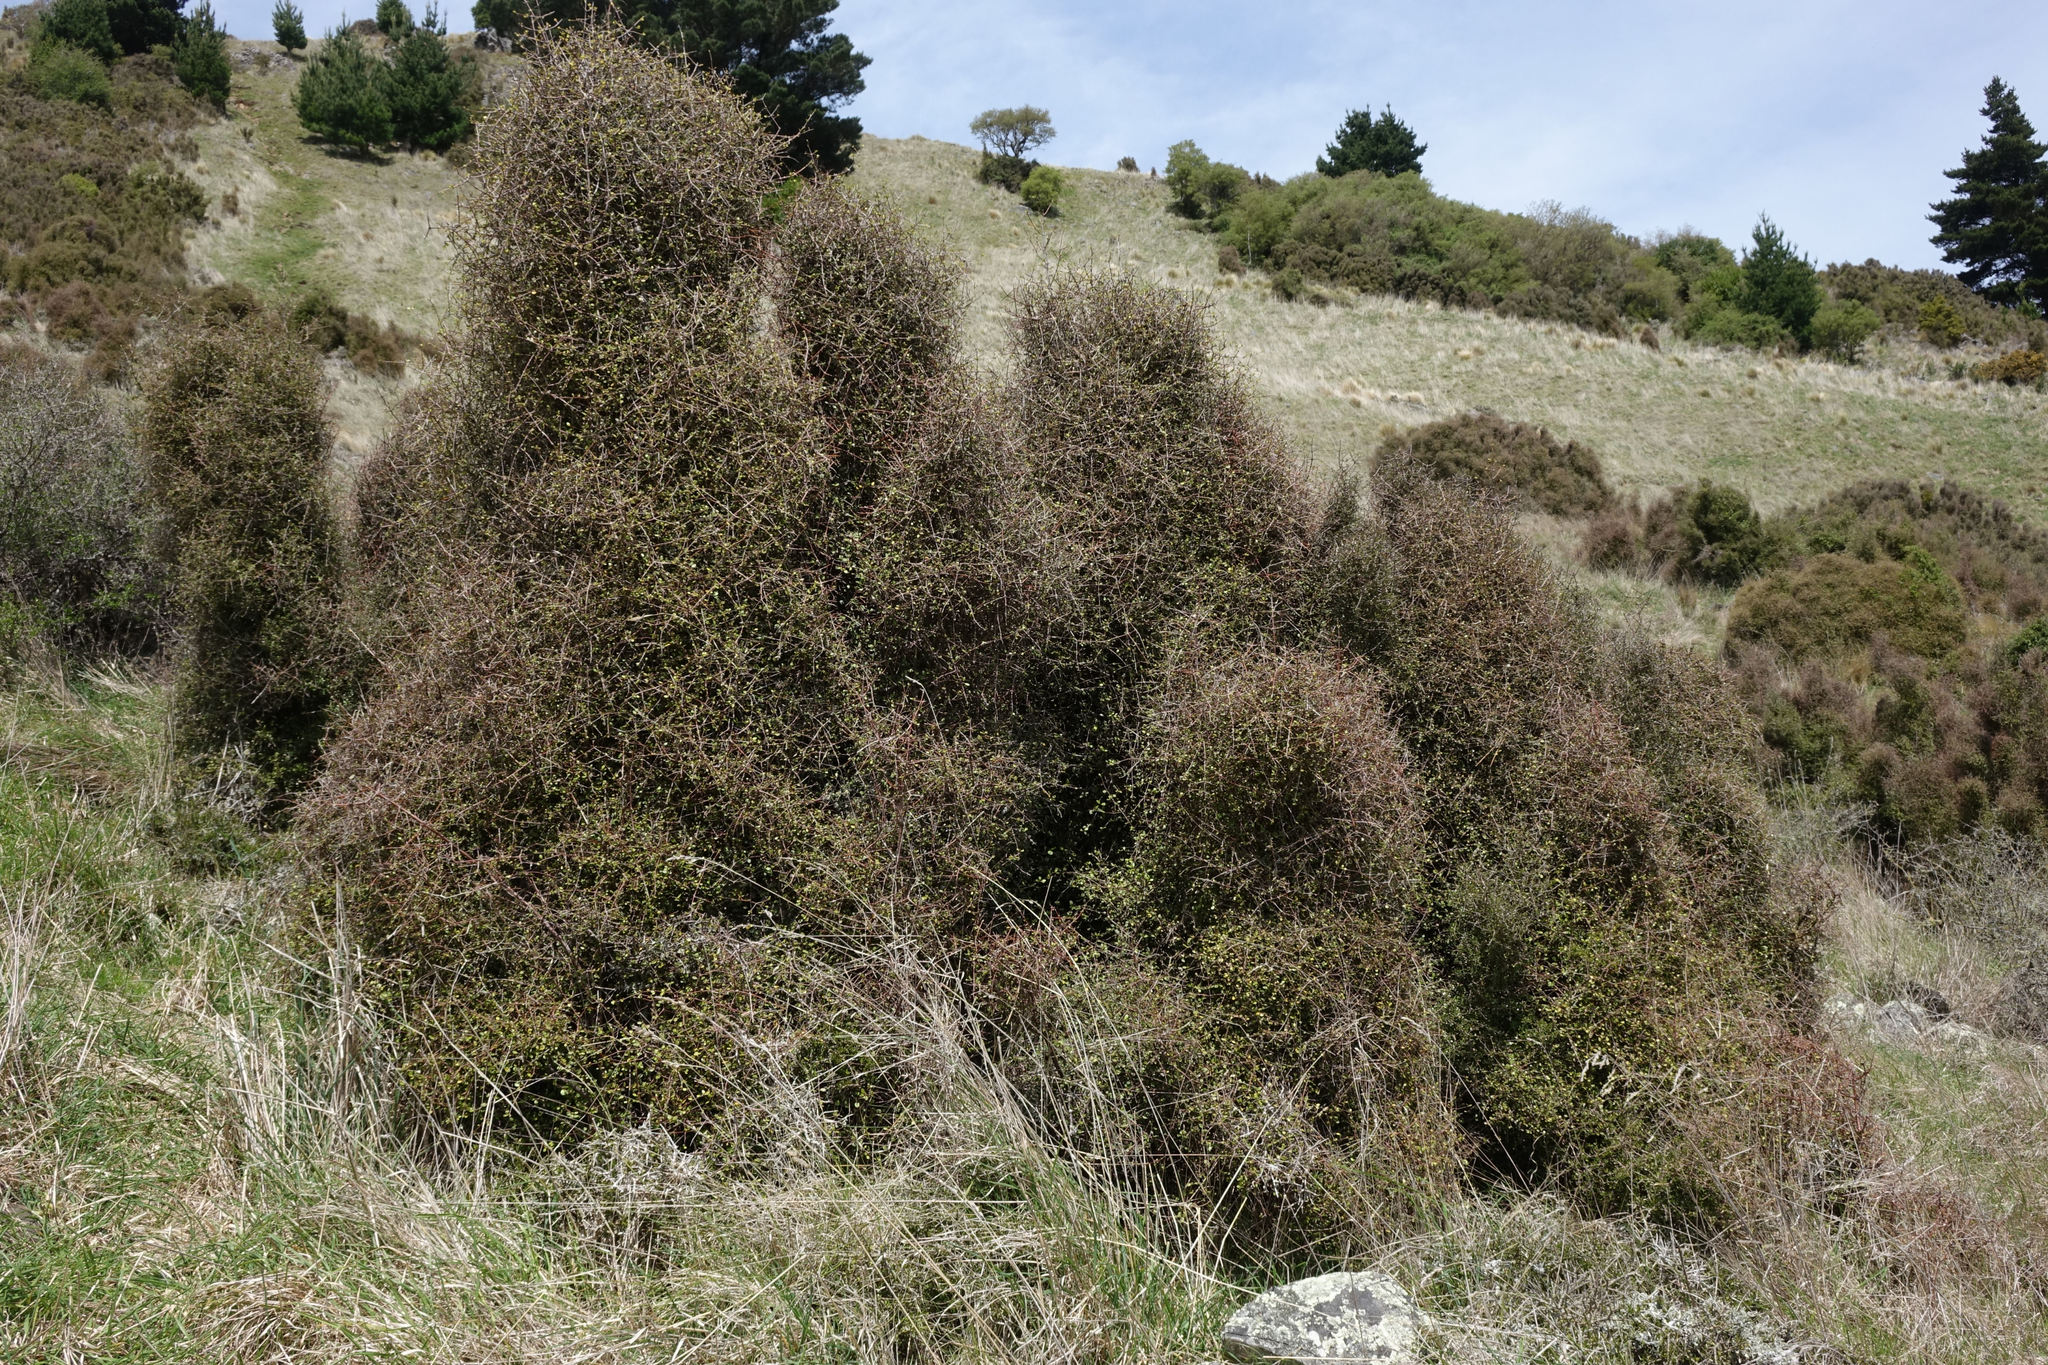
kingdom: Plantae
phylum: Tracheophyta
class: Magnoliopsida
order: Gentianales
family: Rubiaceae
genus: Coprosma
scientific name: Coprosma crassifolia
